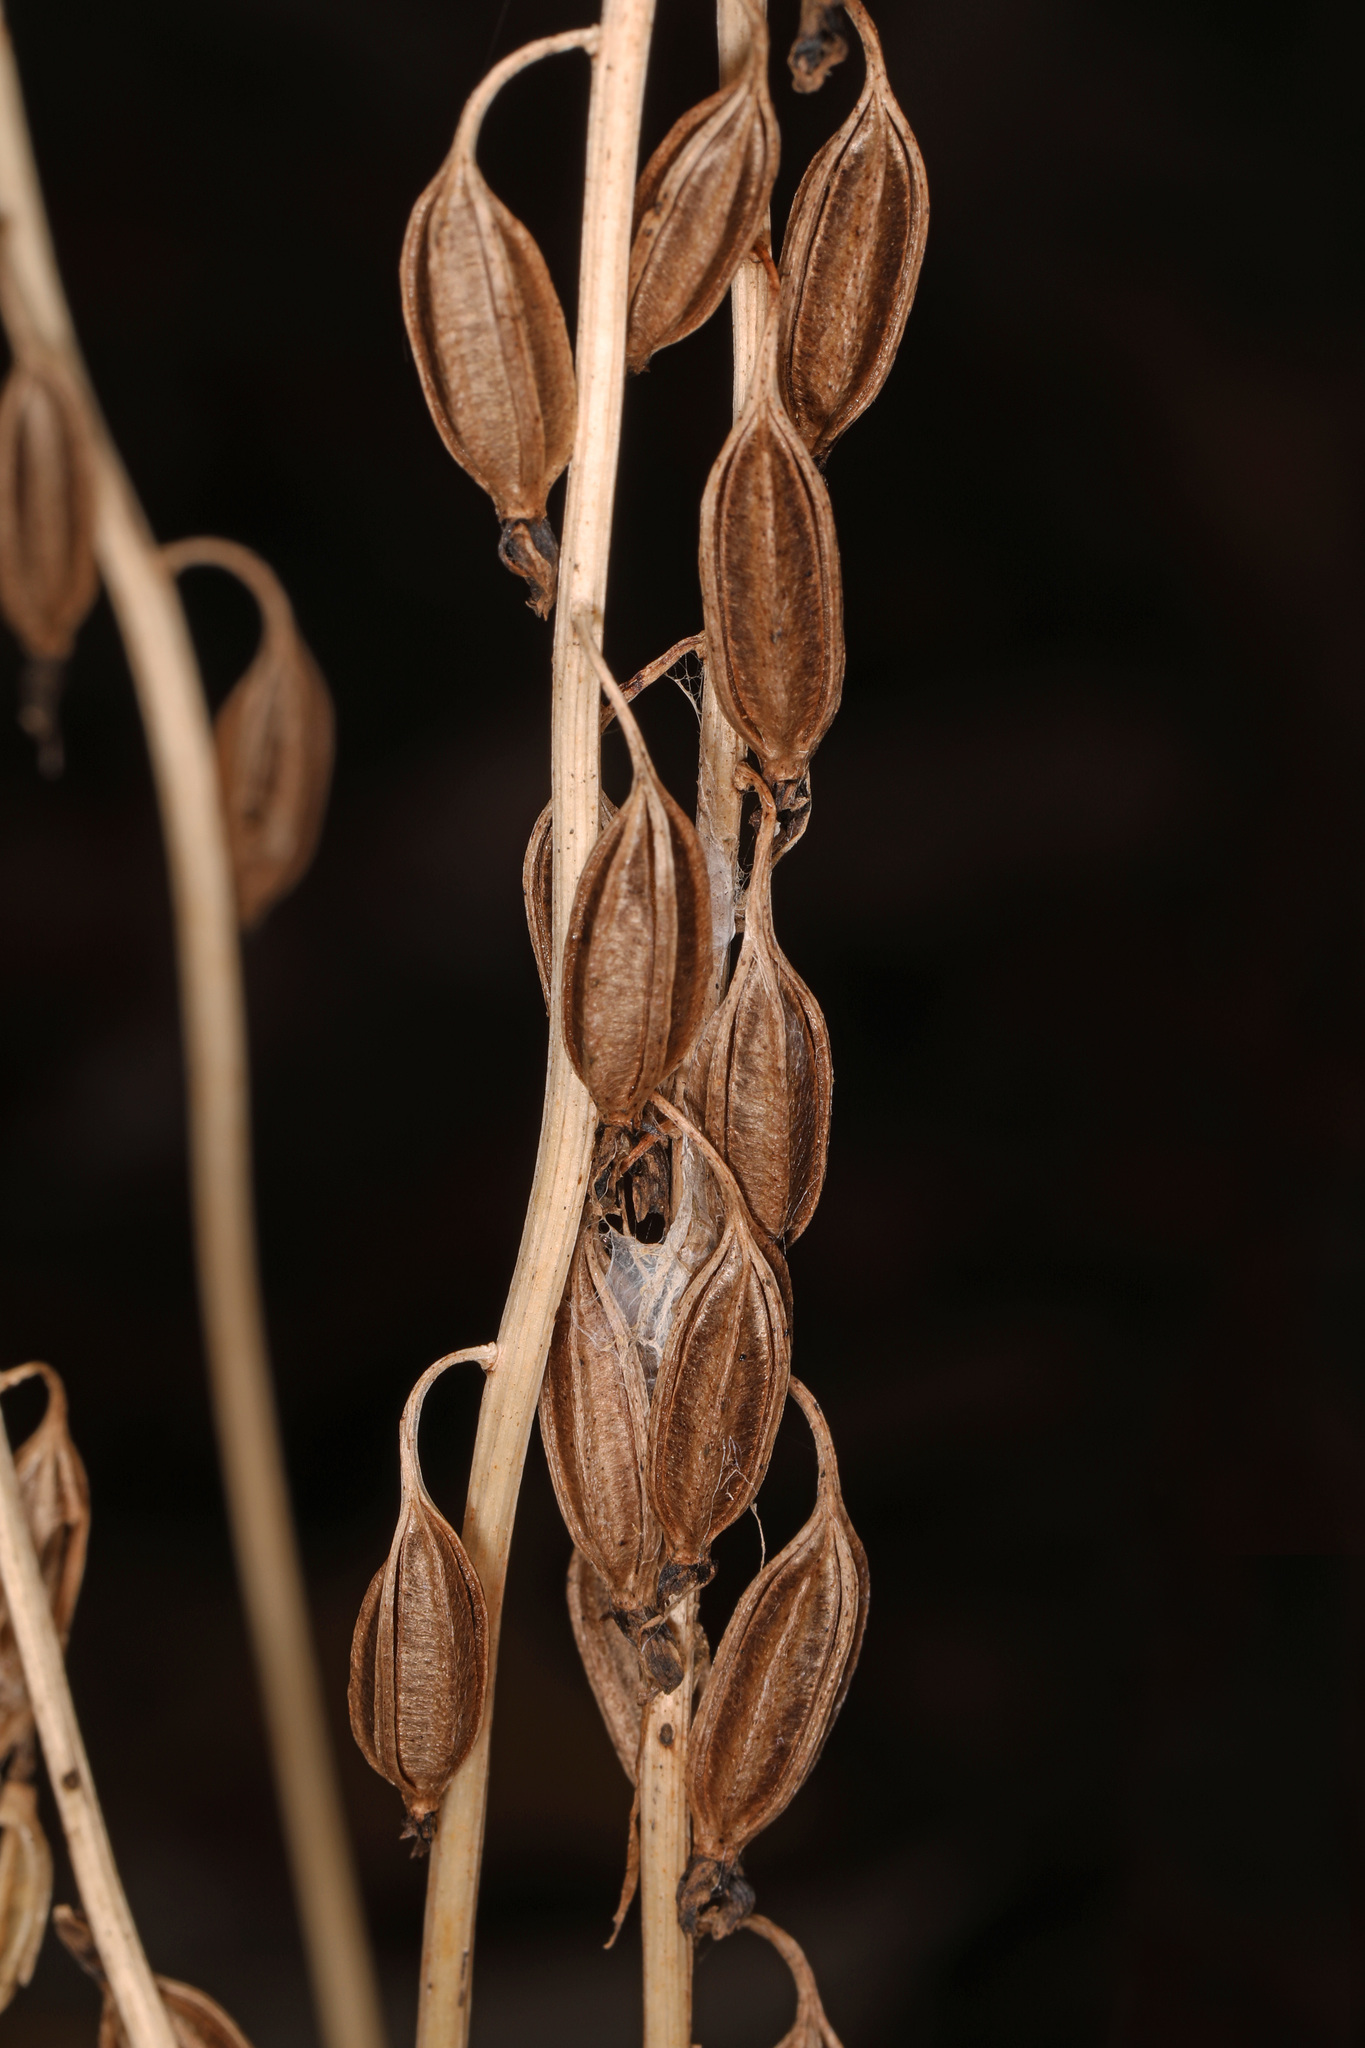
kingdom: Plantae
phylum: Tracheophyta
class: Liliopsida
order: Asparagales
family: Orchidaceae
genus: Tipularia
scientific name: Tipularia discolor
